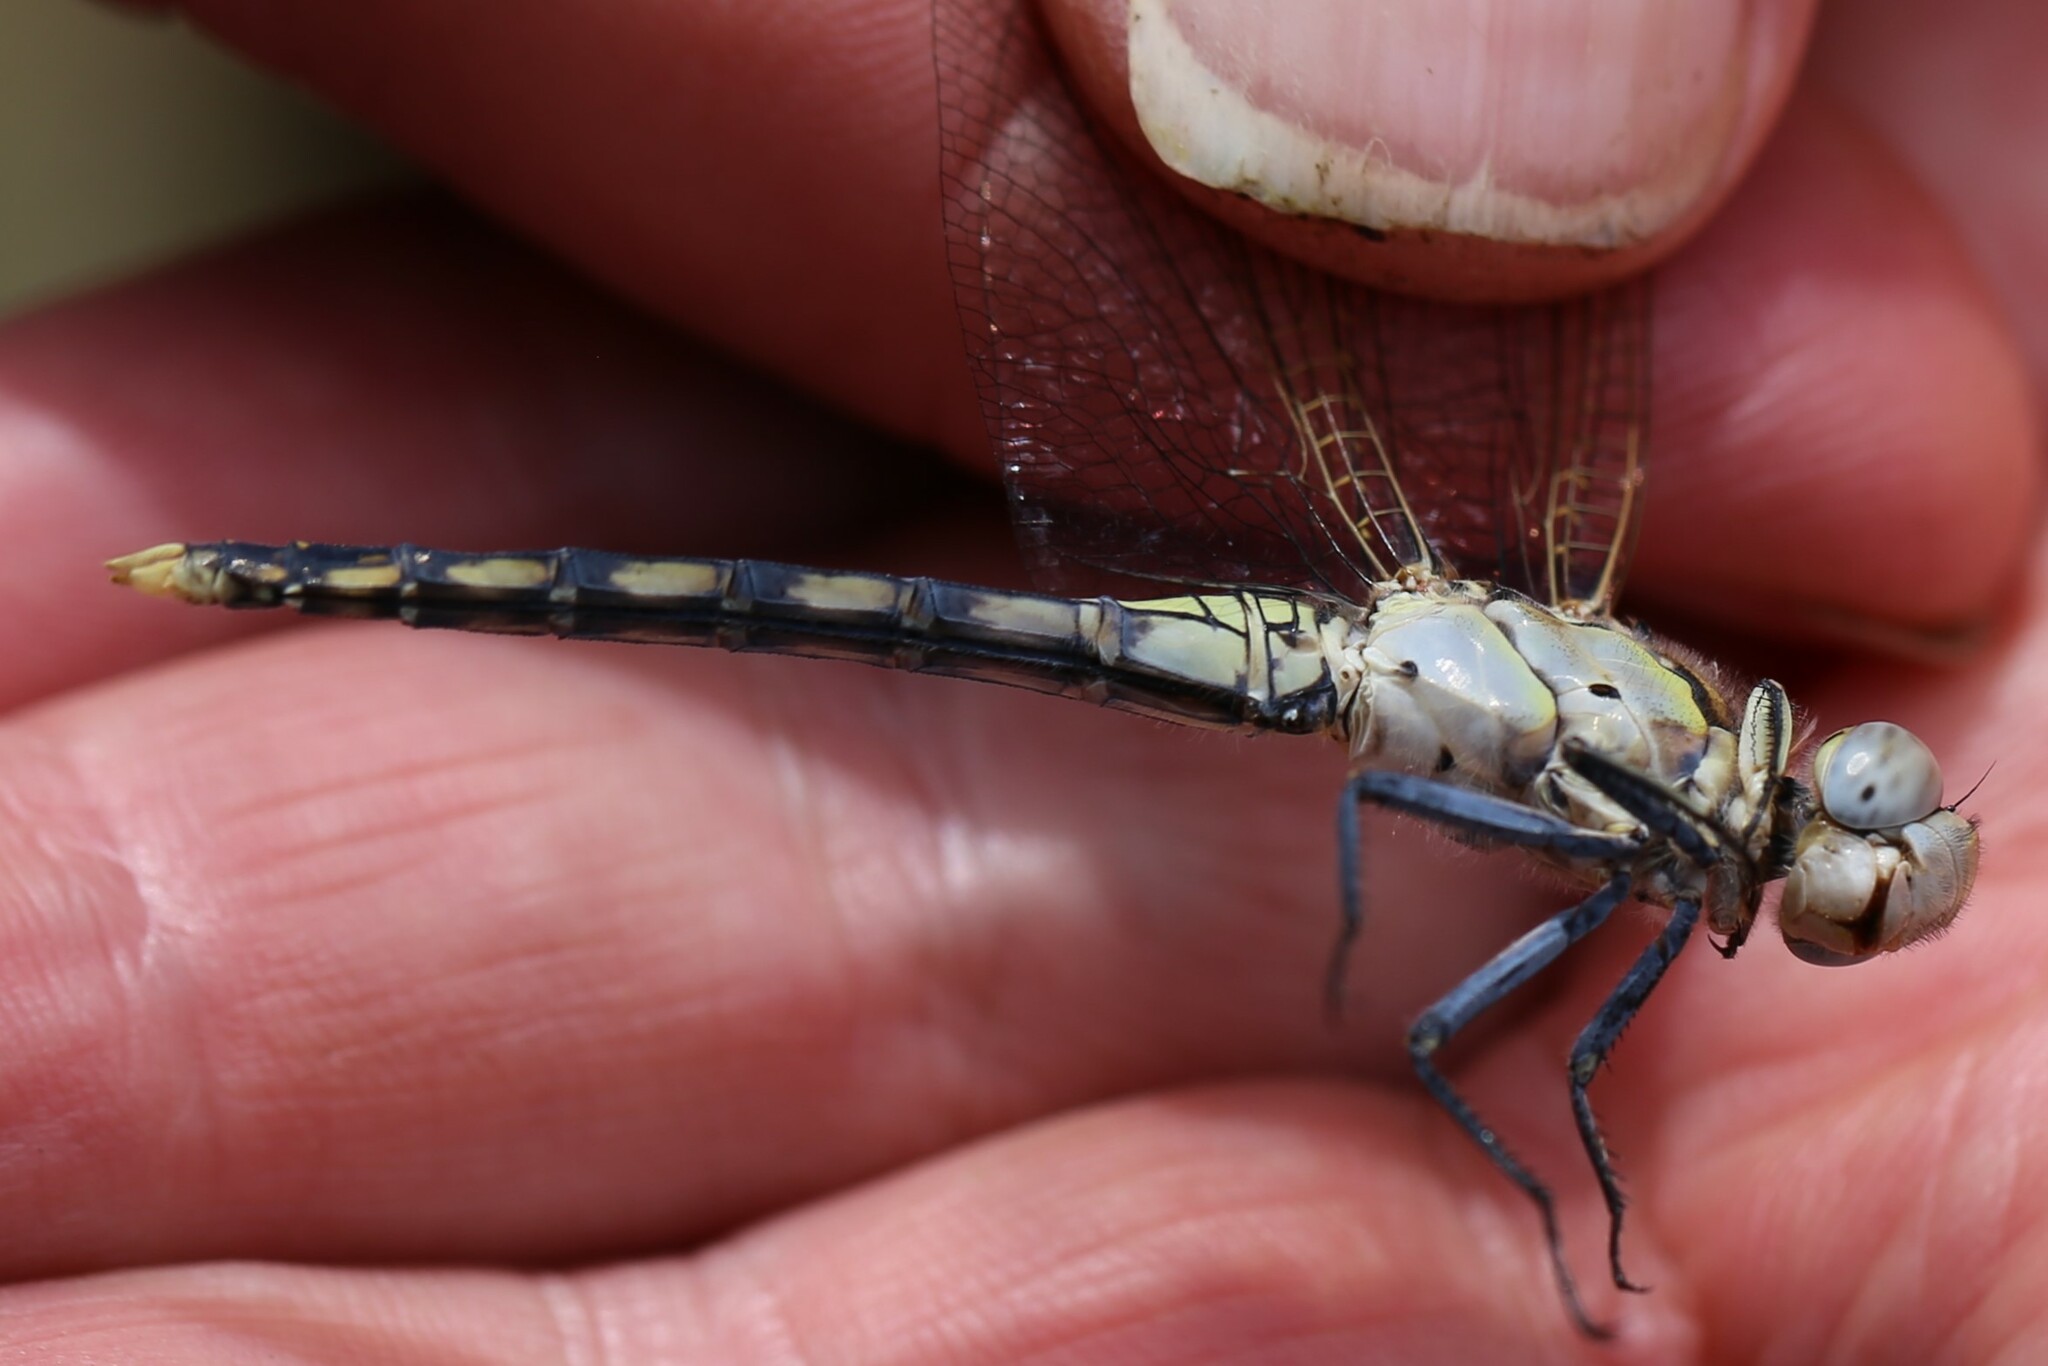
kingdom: Animalia
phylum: Arthropoda
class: Insecta
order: Odonata
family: Libellulidae
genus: Orthetrum
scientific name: Orthetrum caledonicum
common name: Blue skimmer
